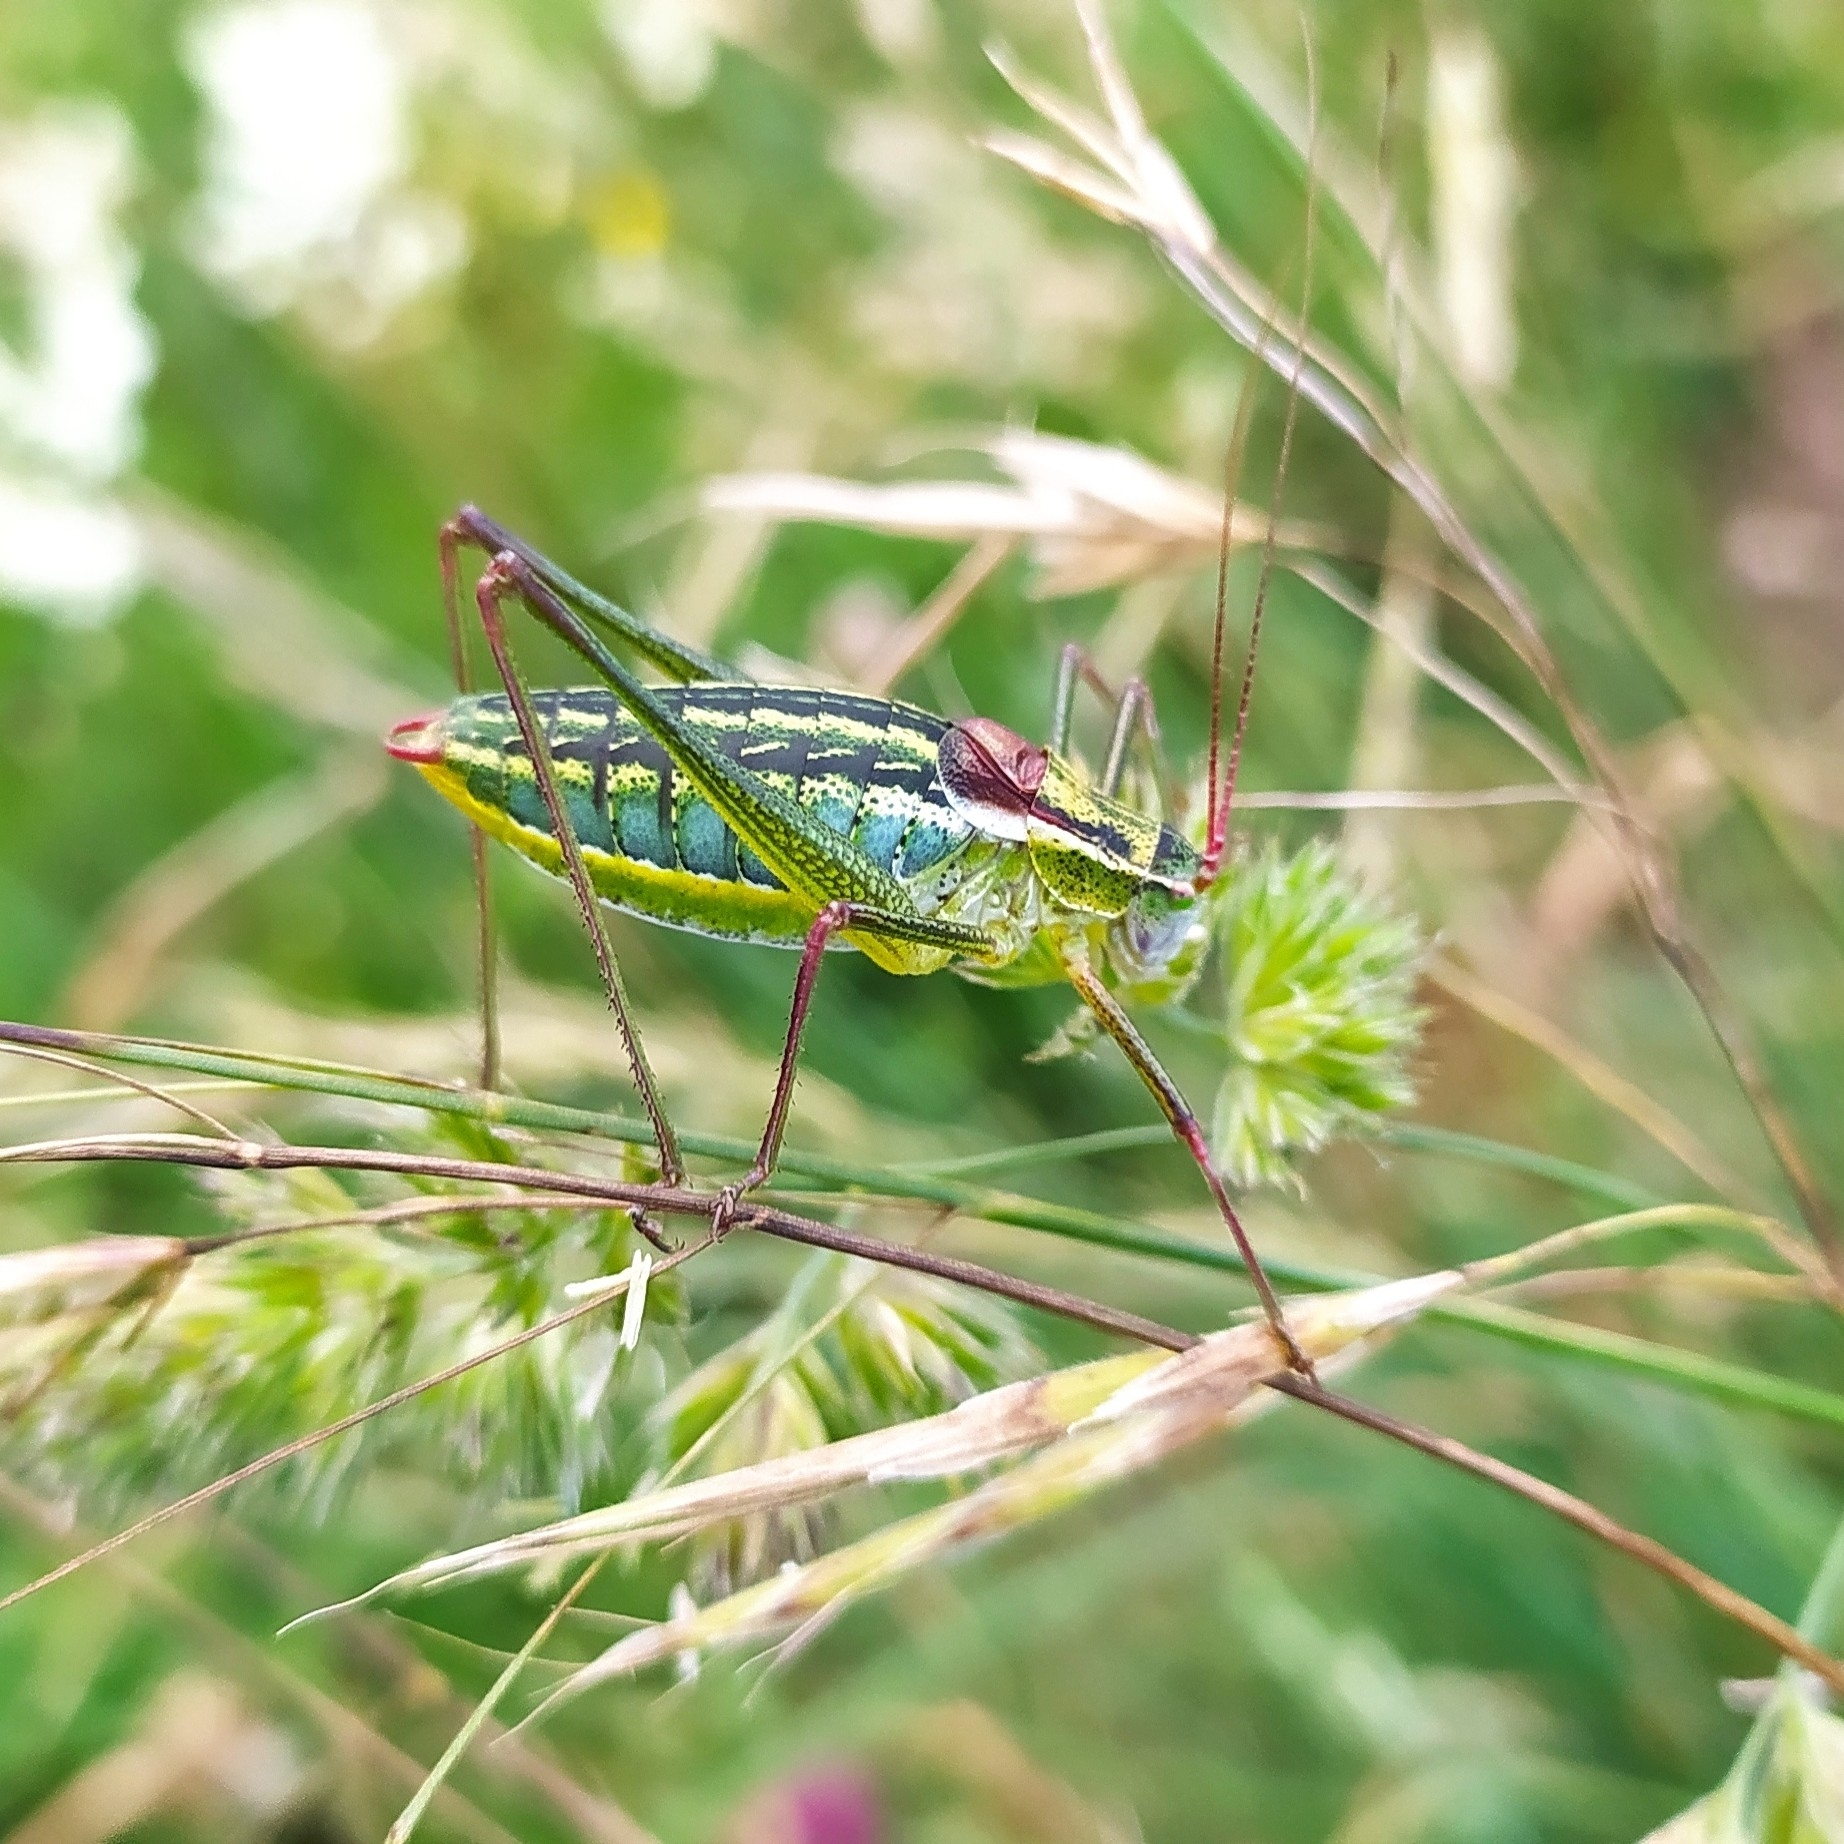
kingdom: Animalia
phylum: Arthropoda
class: Insecta
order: Orthoptera
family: Tettigoniidae
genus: Isophya
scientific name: Isophya taurica
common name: Krymean plump bush-cricket
